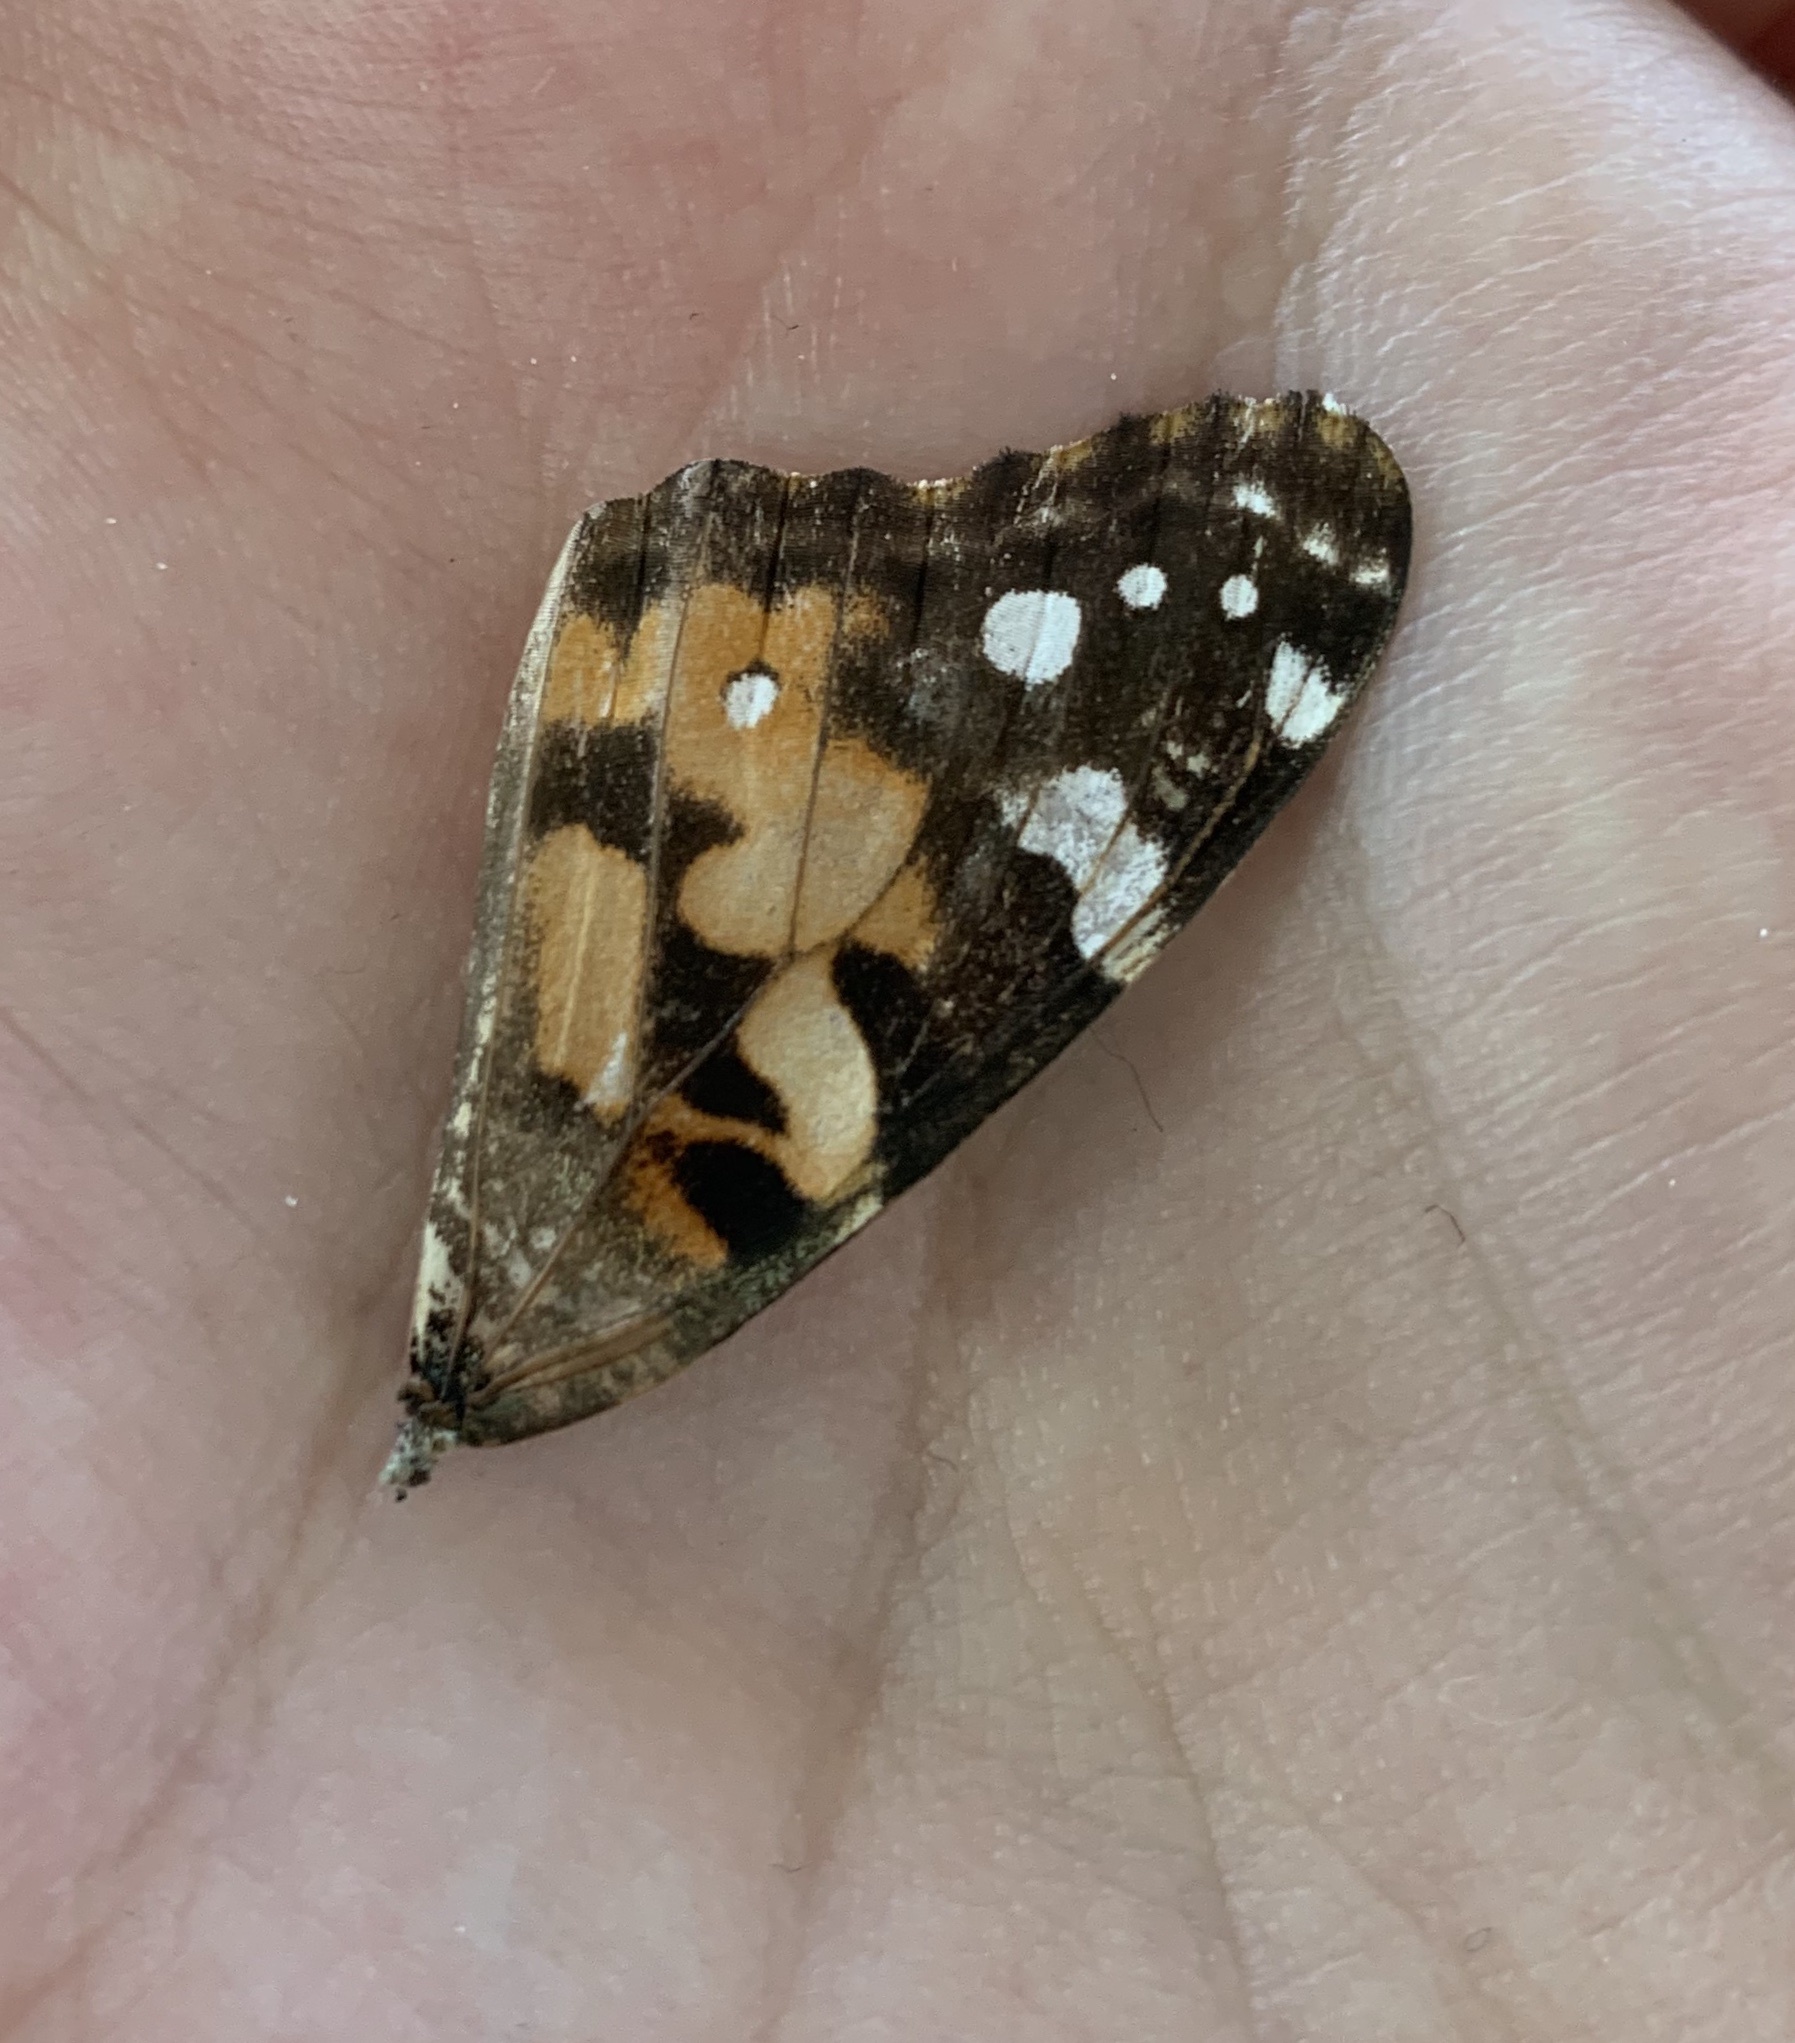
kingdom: Animalia
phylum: Arthropoda
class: Insecta
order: Lepidoptera
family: Nymphalidae
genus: Vanessa
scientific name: Vanessa cardui
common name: Painted lady
